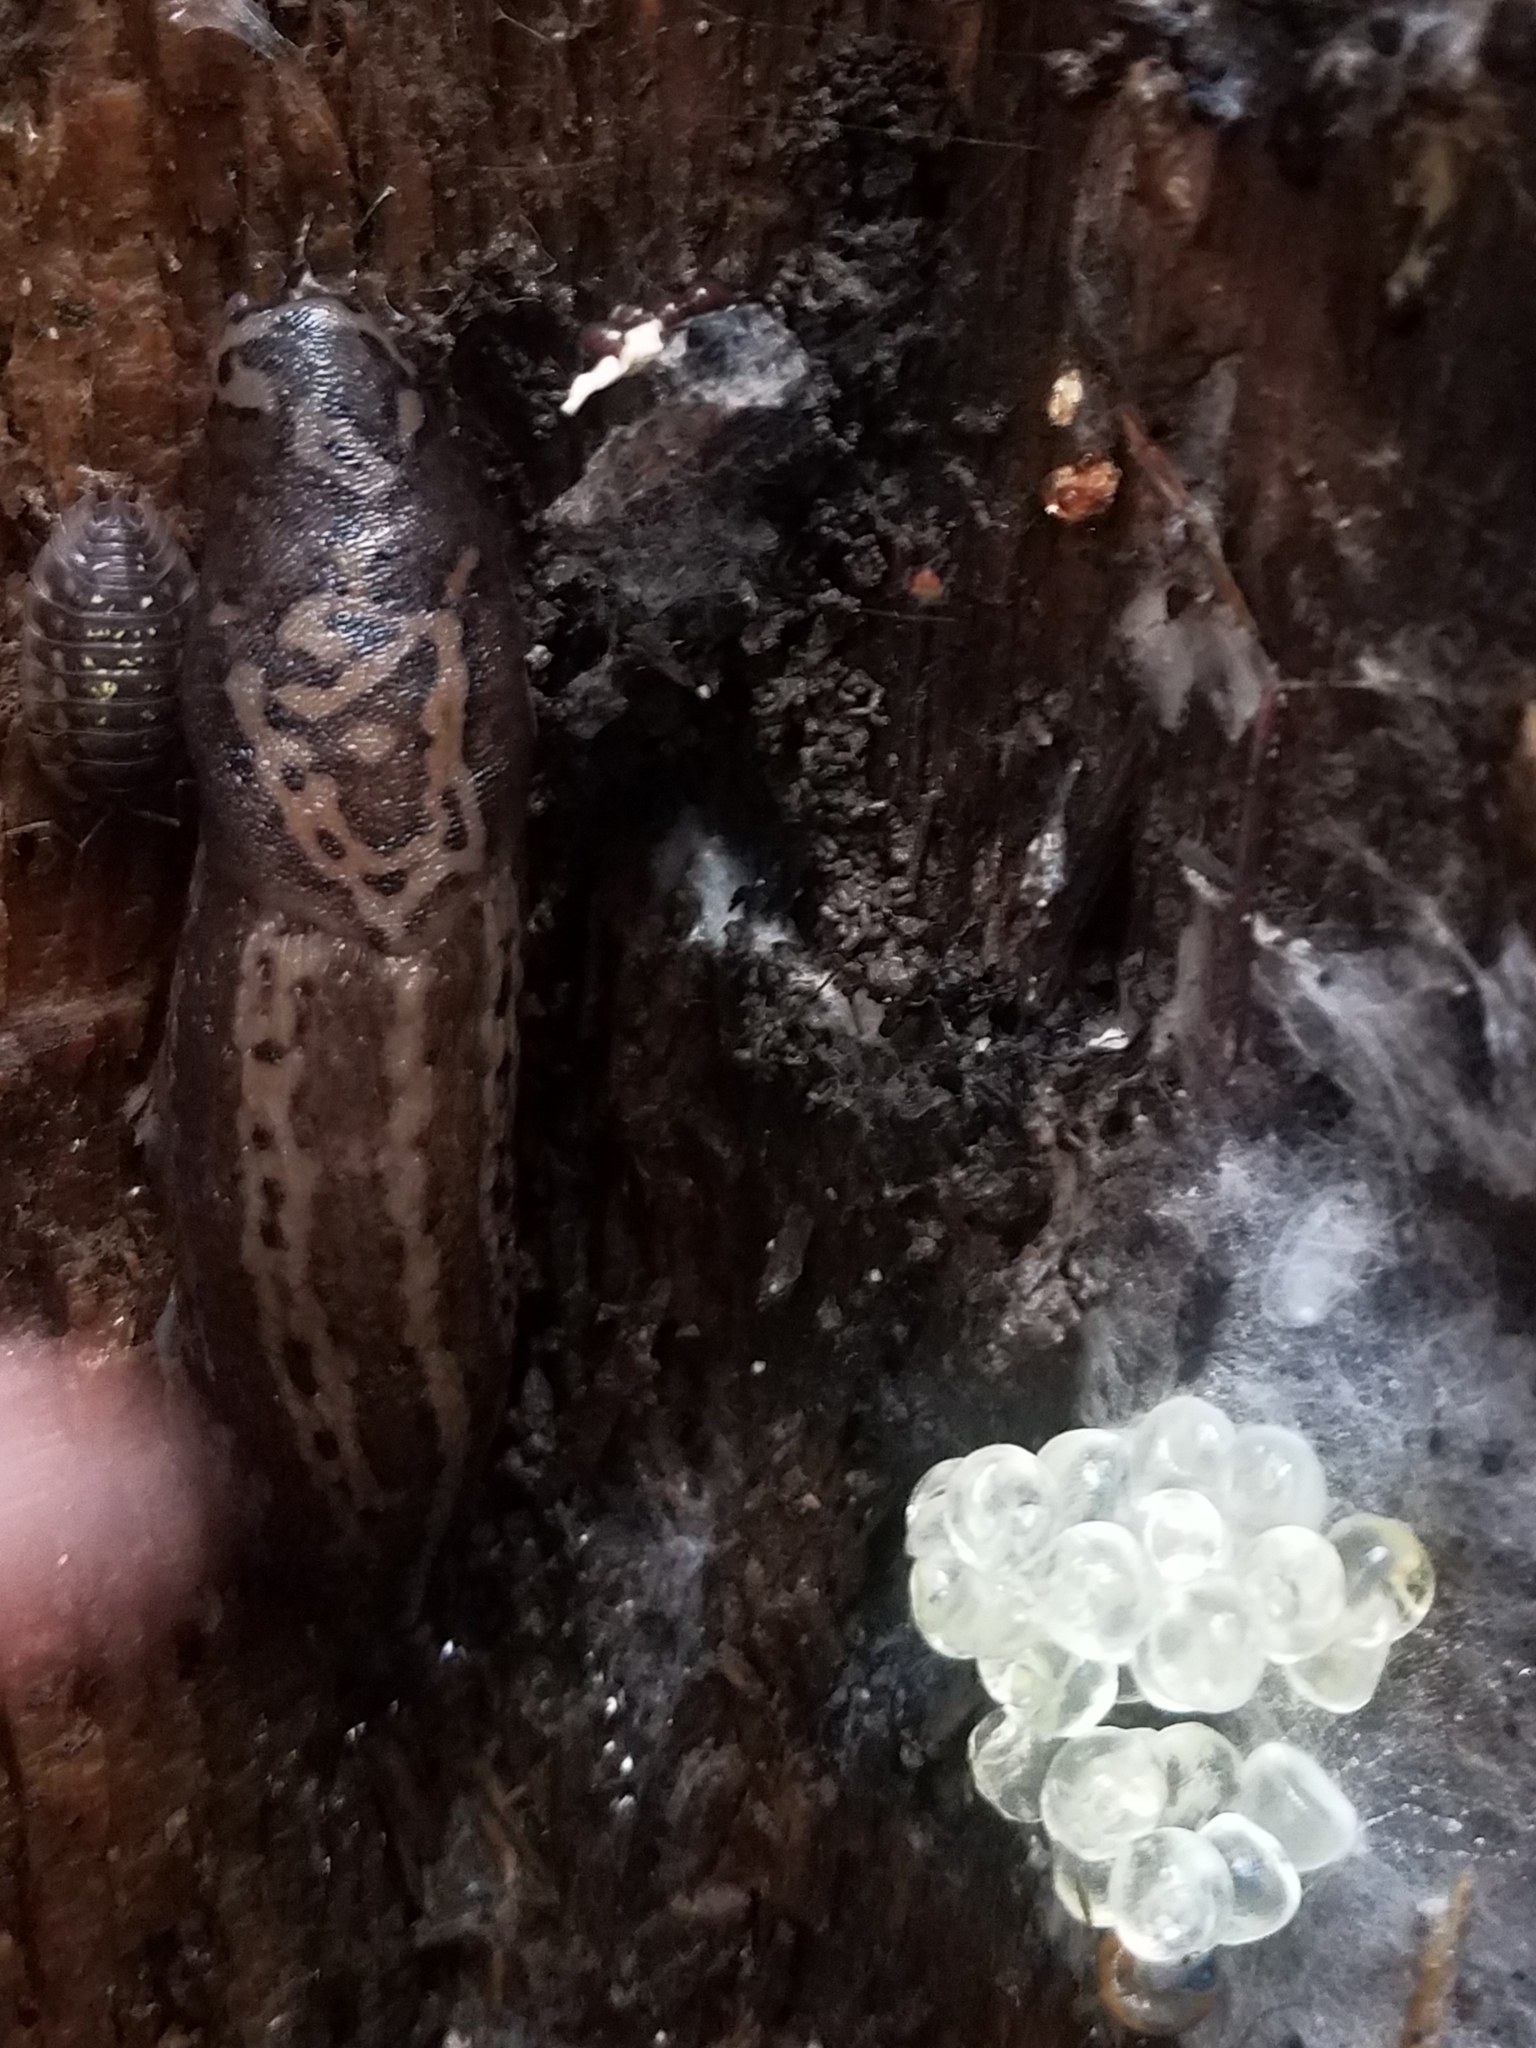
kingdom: Animalia
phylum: Mollusca
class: Gastropoda
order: Stylommatophora
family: Limacidae
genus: Limax
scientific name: Limax maximus
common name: Great grey slug
